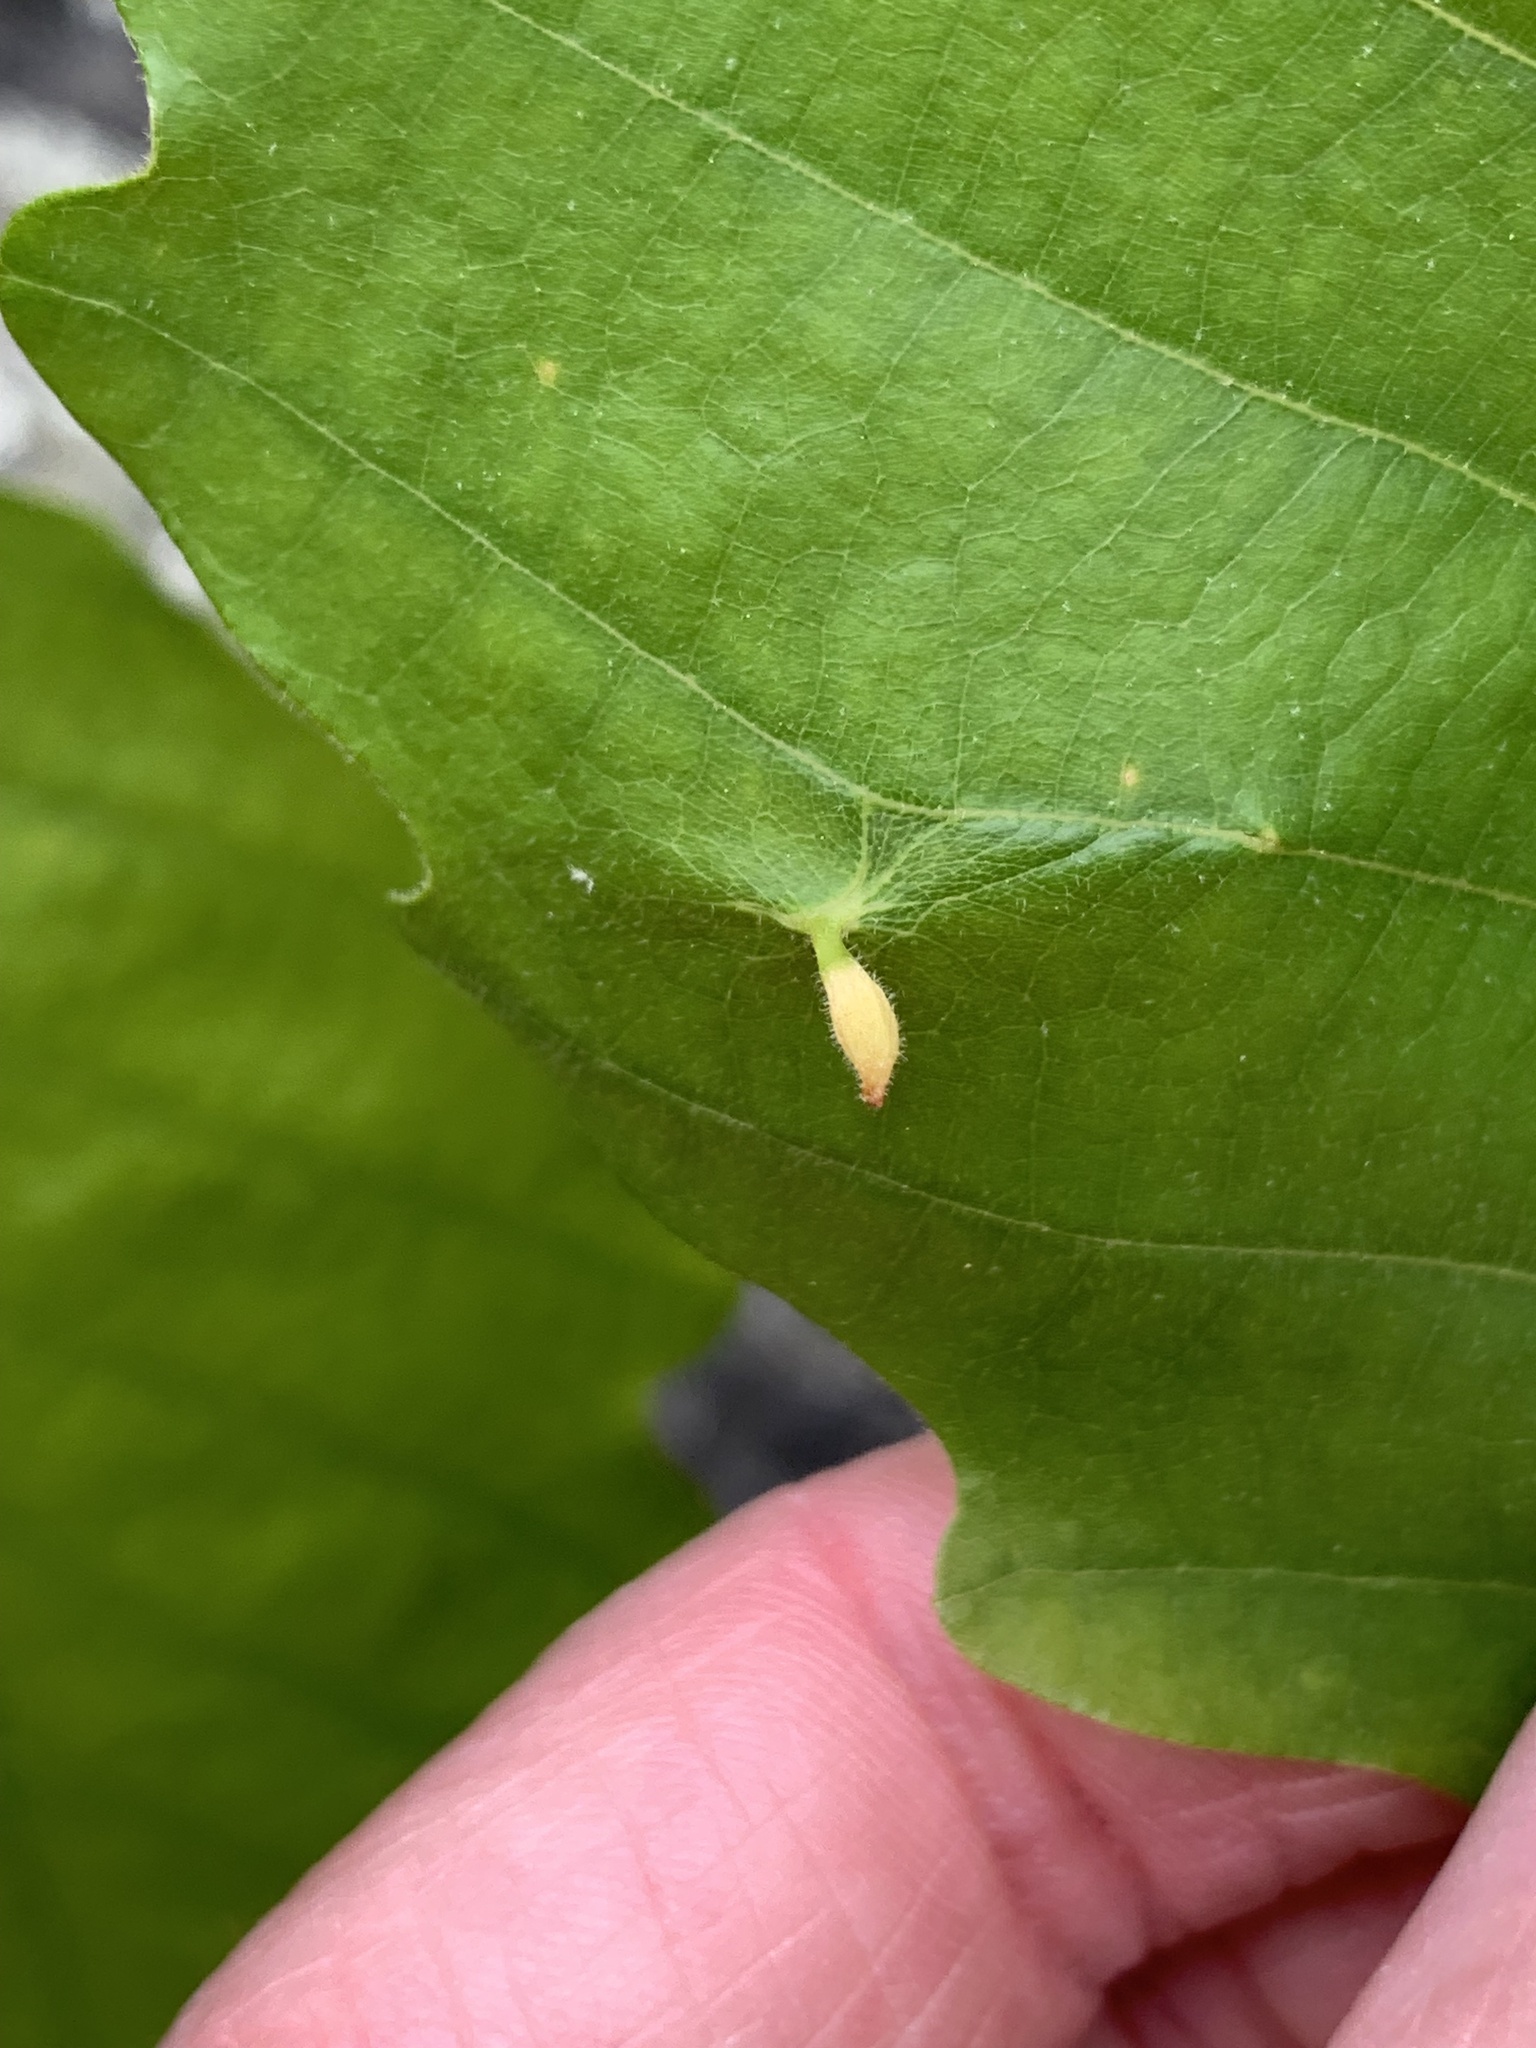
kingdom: Animalia
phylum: Arthropoda
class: Insecta
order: Hymenoptera
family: Cynipidae
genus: Andricus
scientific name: Andricus
